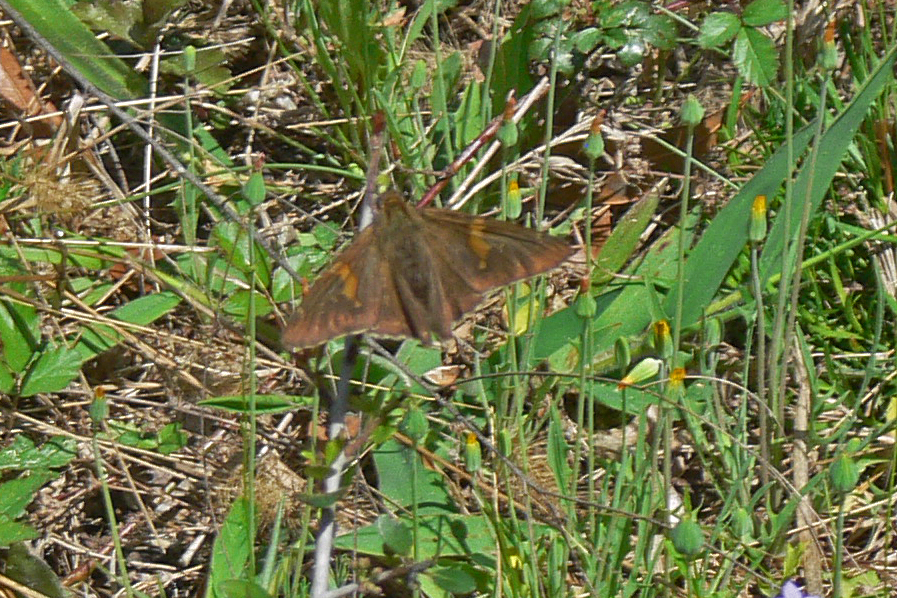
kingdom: Animalia
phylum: Arthropoda
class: Insecta
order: Lepidoptera
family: Hesperiidae
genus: Epargyreus
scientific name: Epargyreus clarus
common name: Silver-spotted skipper
